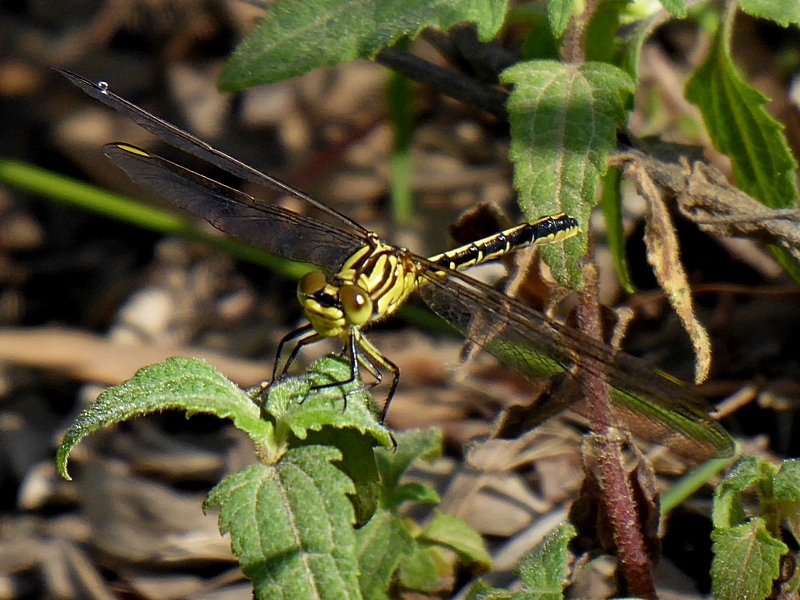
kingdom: Animalia
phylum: Arthropoda
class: Insecta
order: Odonata
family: Gomphidae
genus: Austrogomphus
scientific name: Austrogomphus guerini
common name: Yellow-striped hunter
